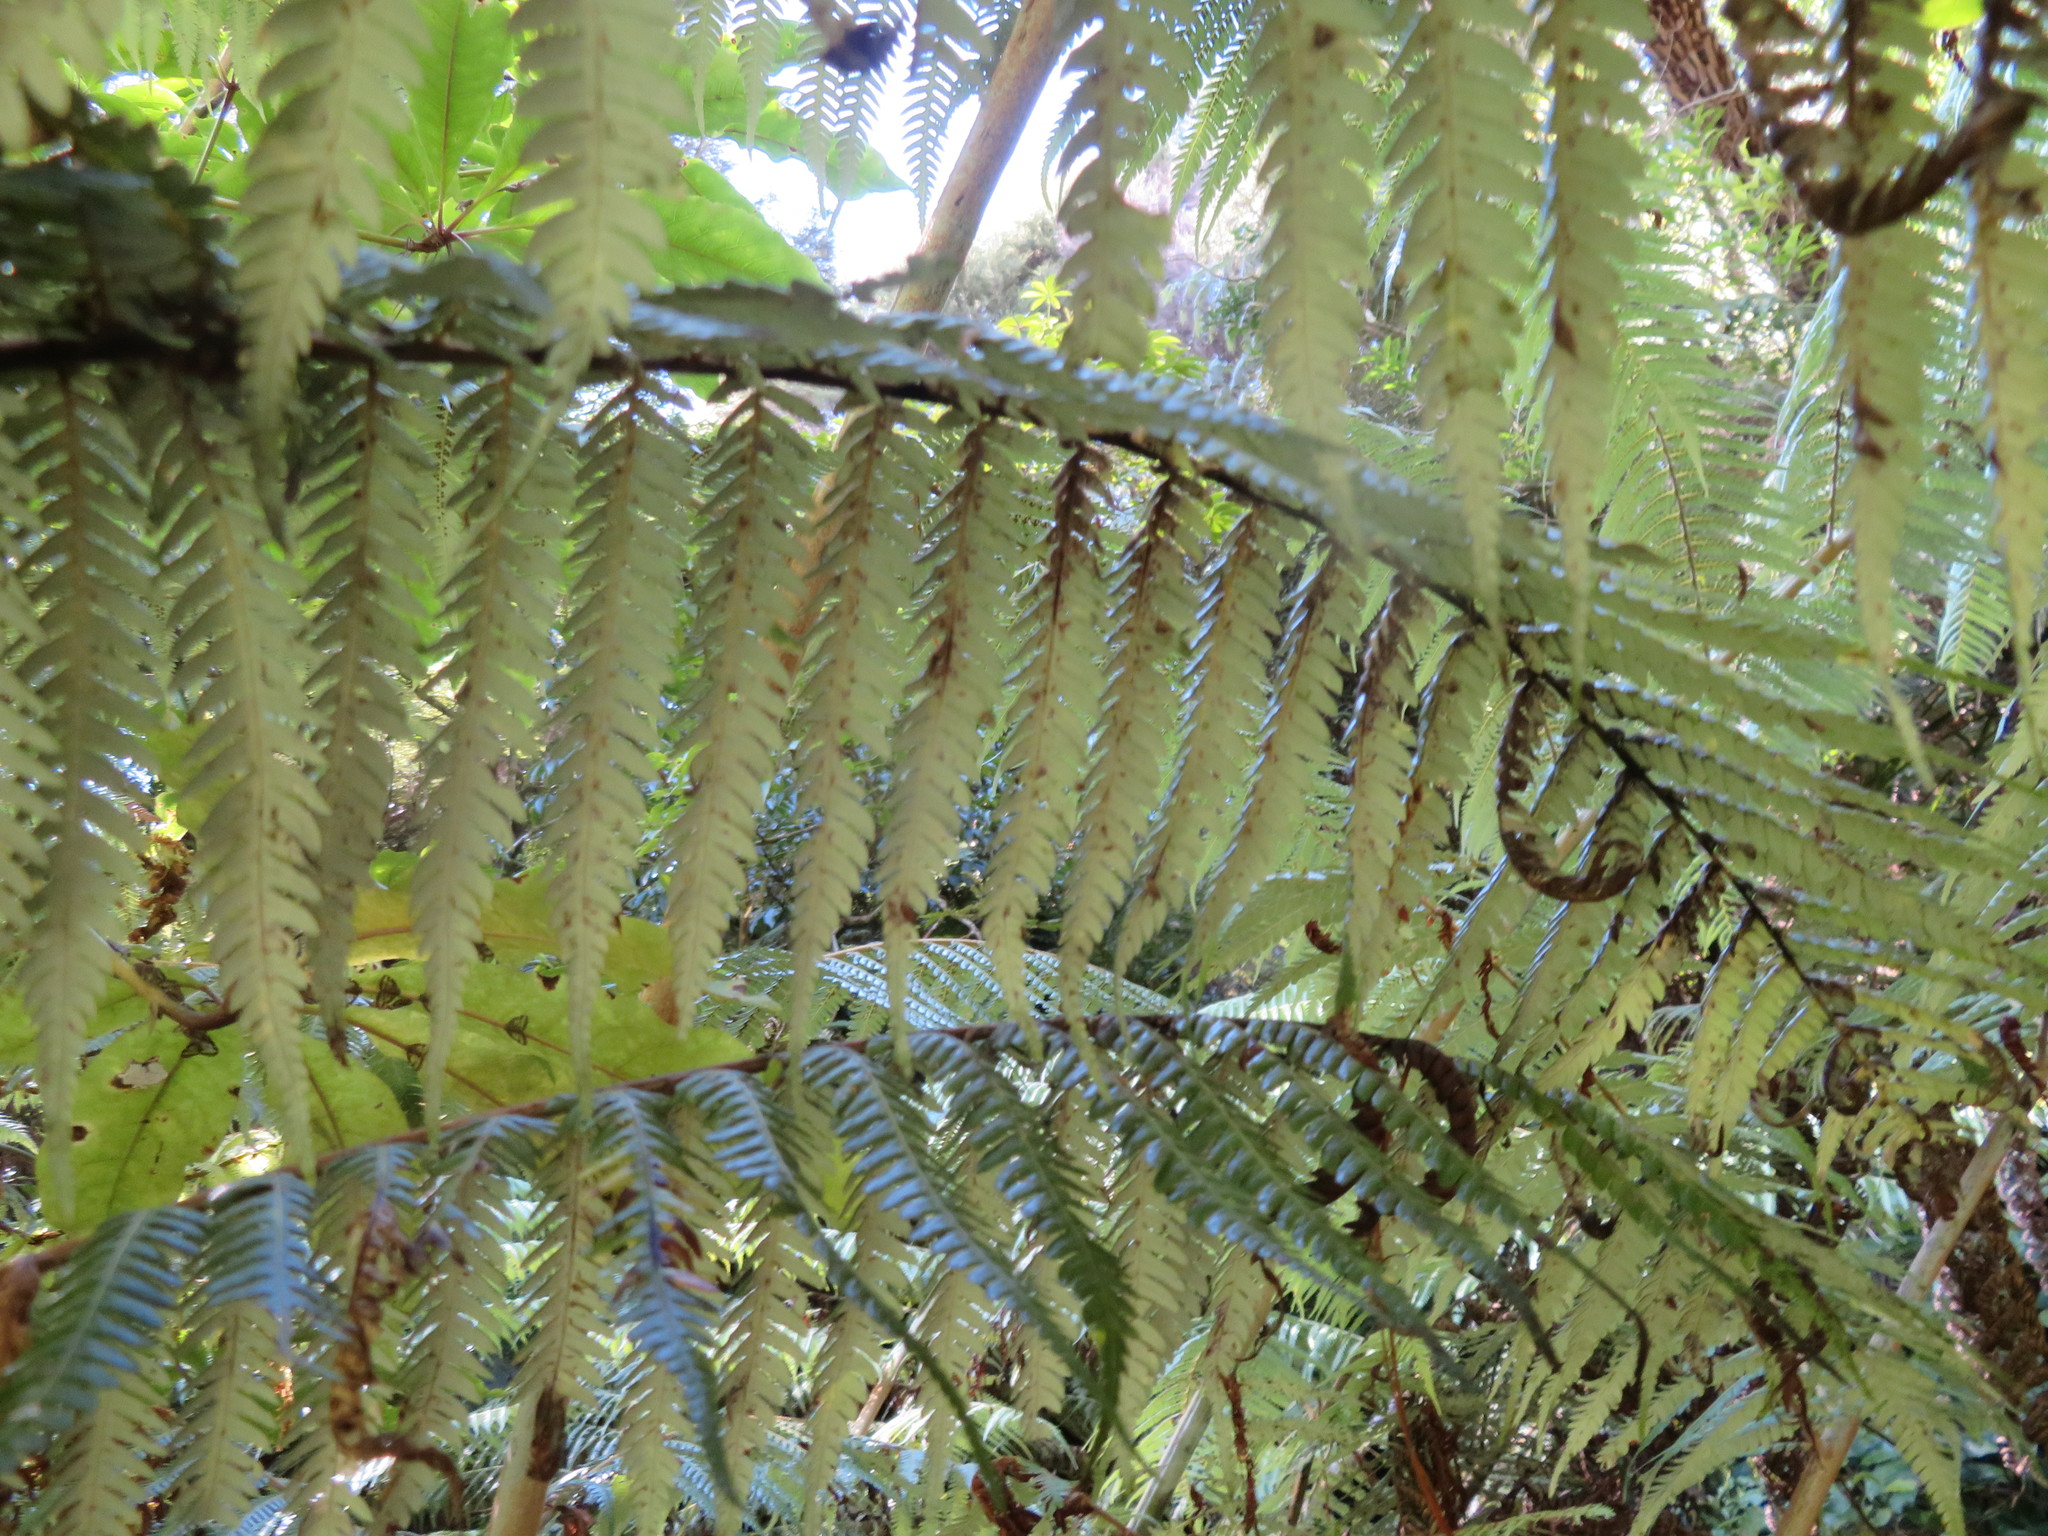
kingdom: Plantae
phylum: Tracheophyta
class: Polypodiopsida
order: Cyatheales
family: Cyatheaceae
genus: Alsophila
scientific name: Alsophila dealbata
